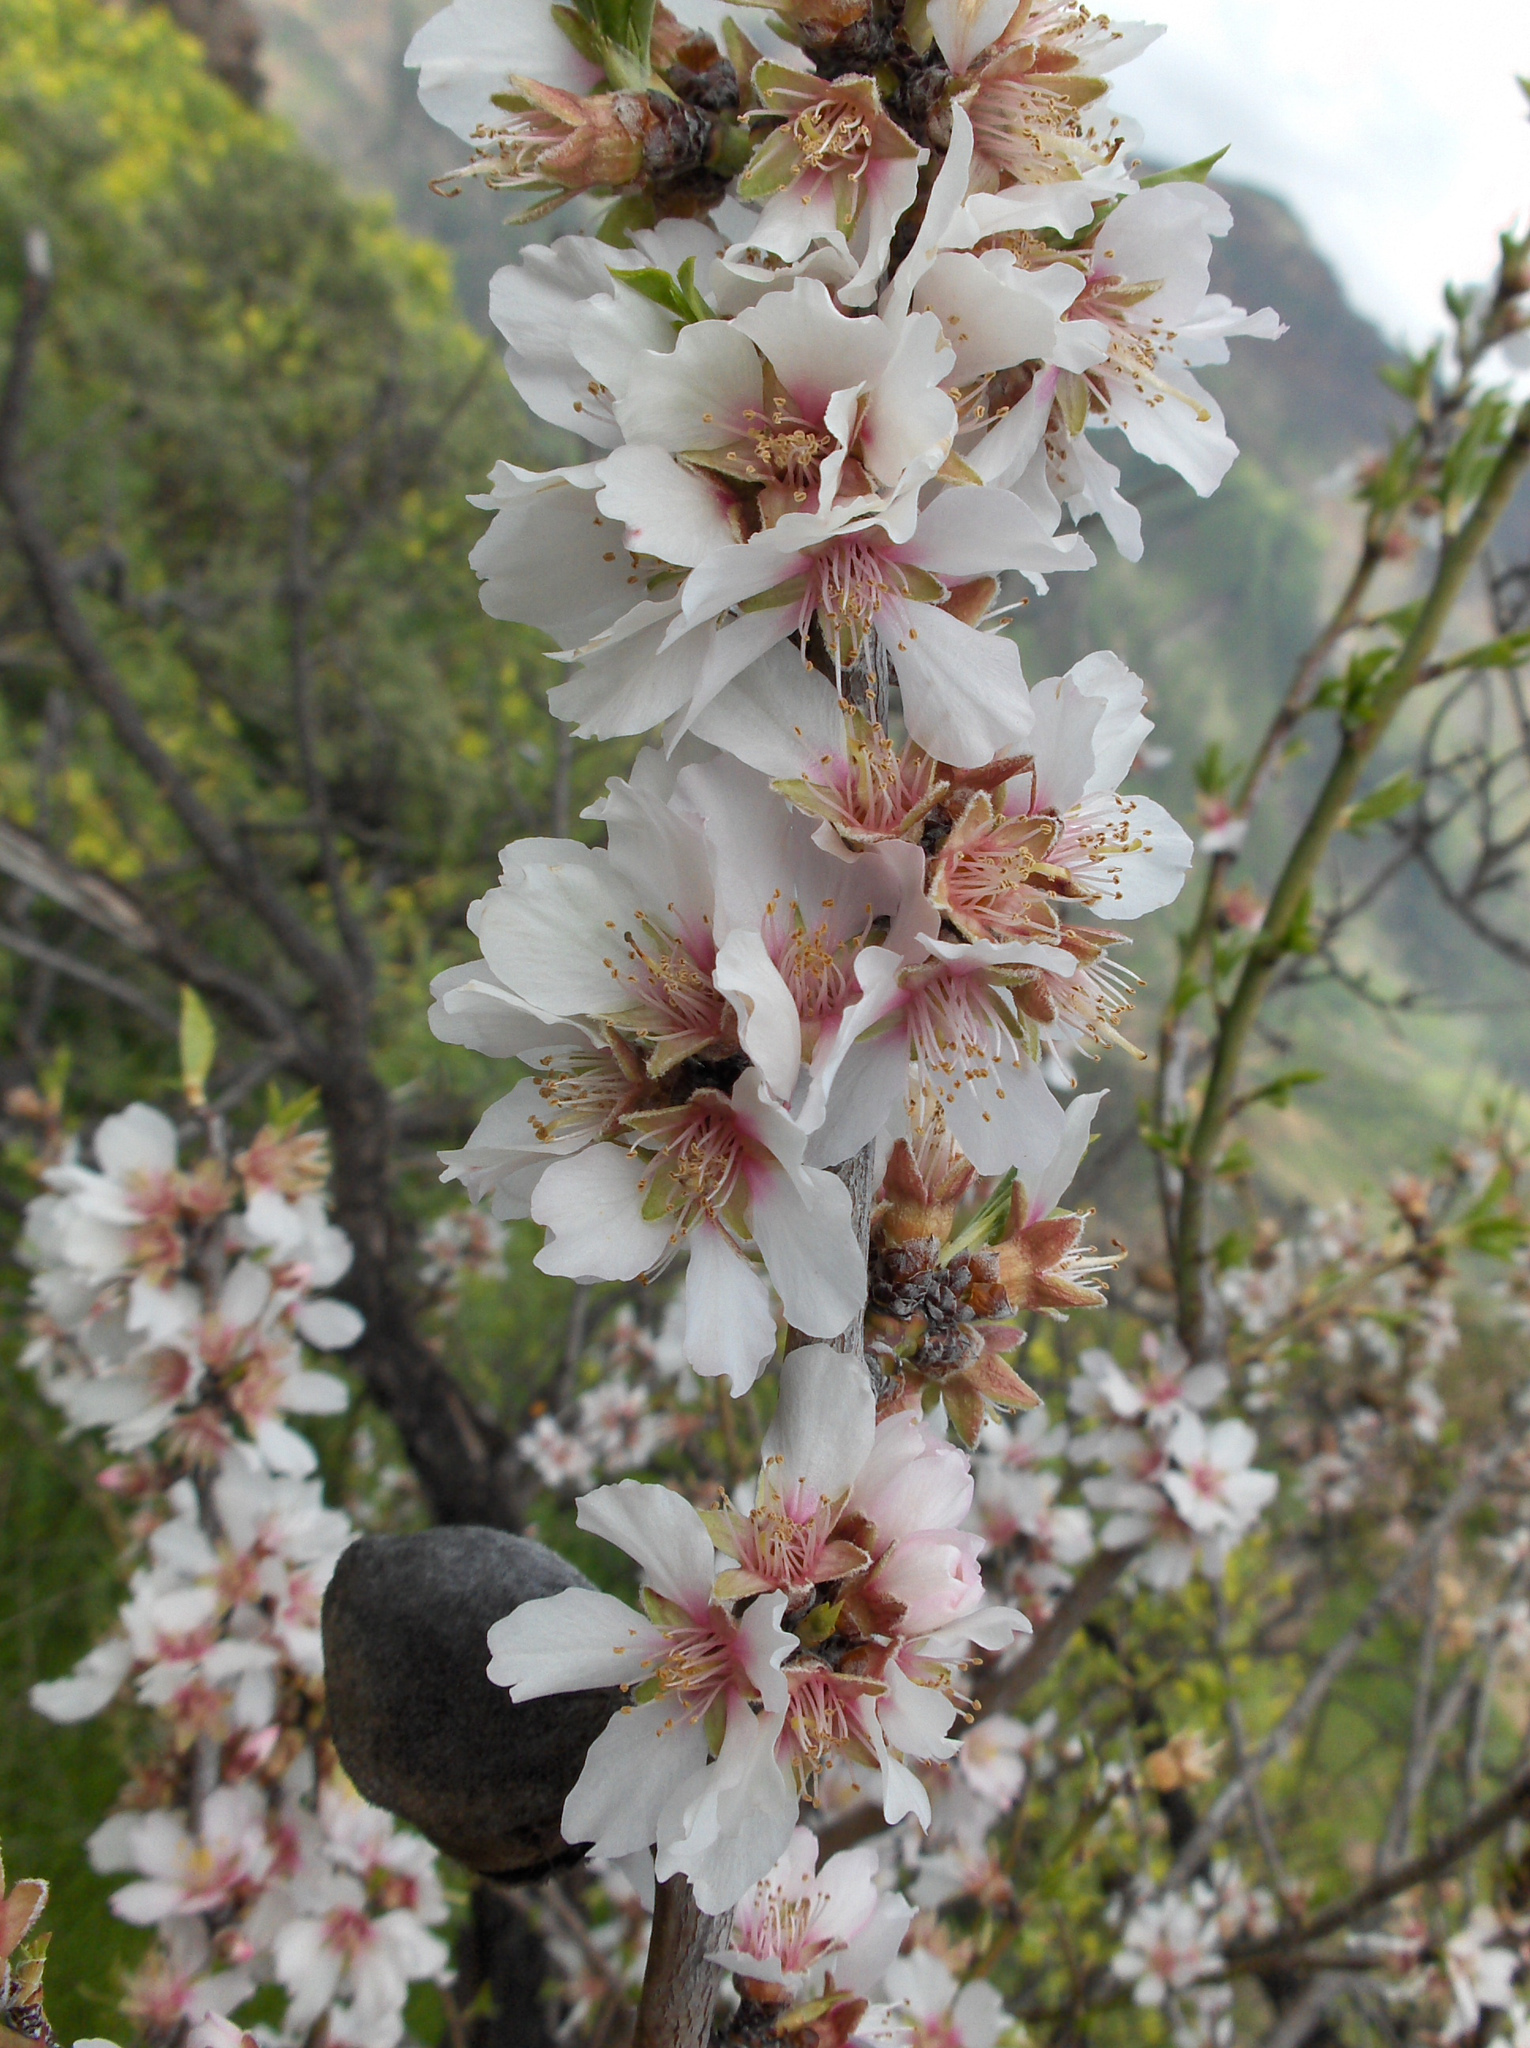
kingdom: Plantae
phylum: Tracheophyta
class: Magnoliopsida
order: Rosales
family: Rosaceae
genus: Prunus
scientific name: Prunus amygdalus
